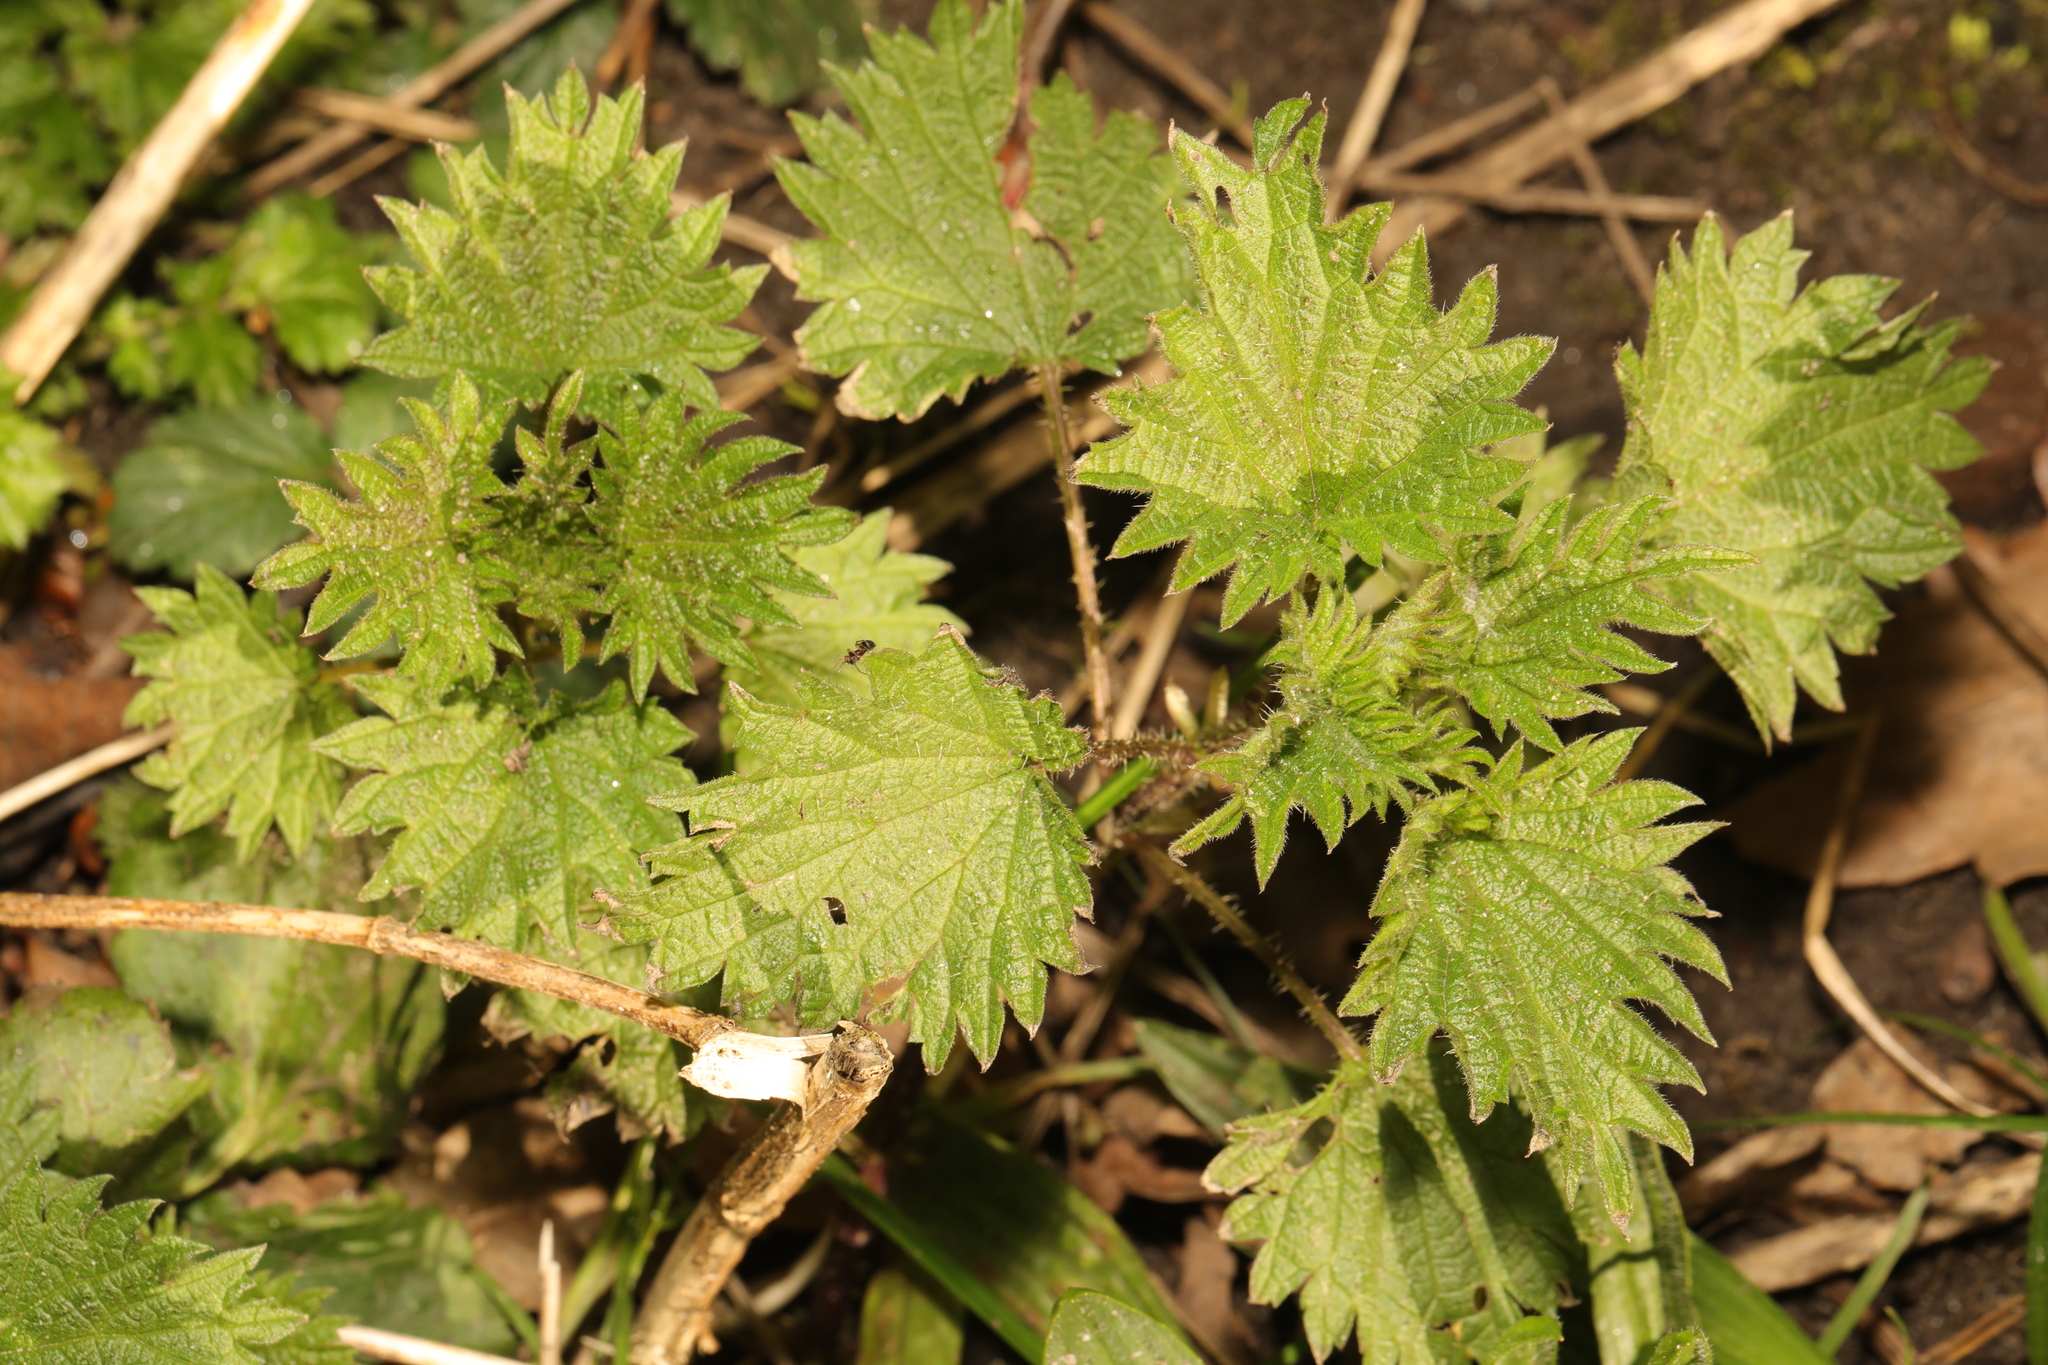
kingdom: Plantae
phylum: Tracheophyta
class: Magnoliopsida
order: Rosales
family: Urticaceae
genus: Urtica
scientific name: Urtica dioica
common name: Common nettle
